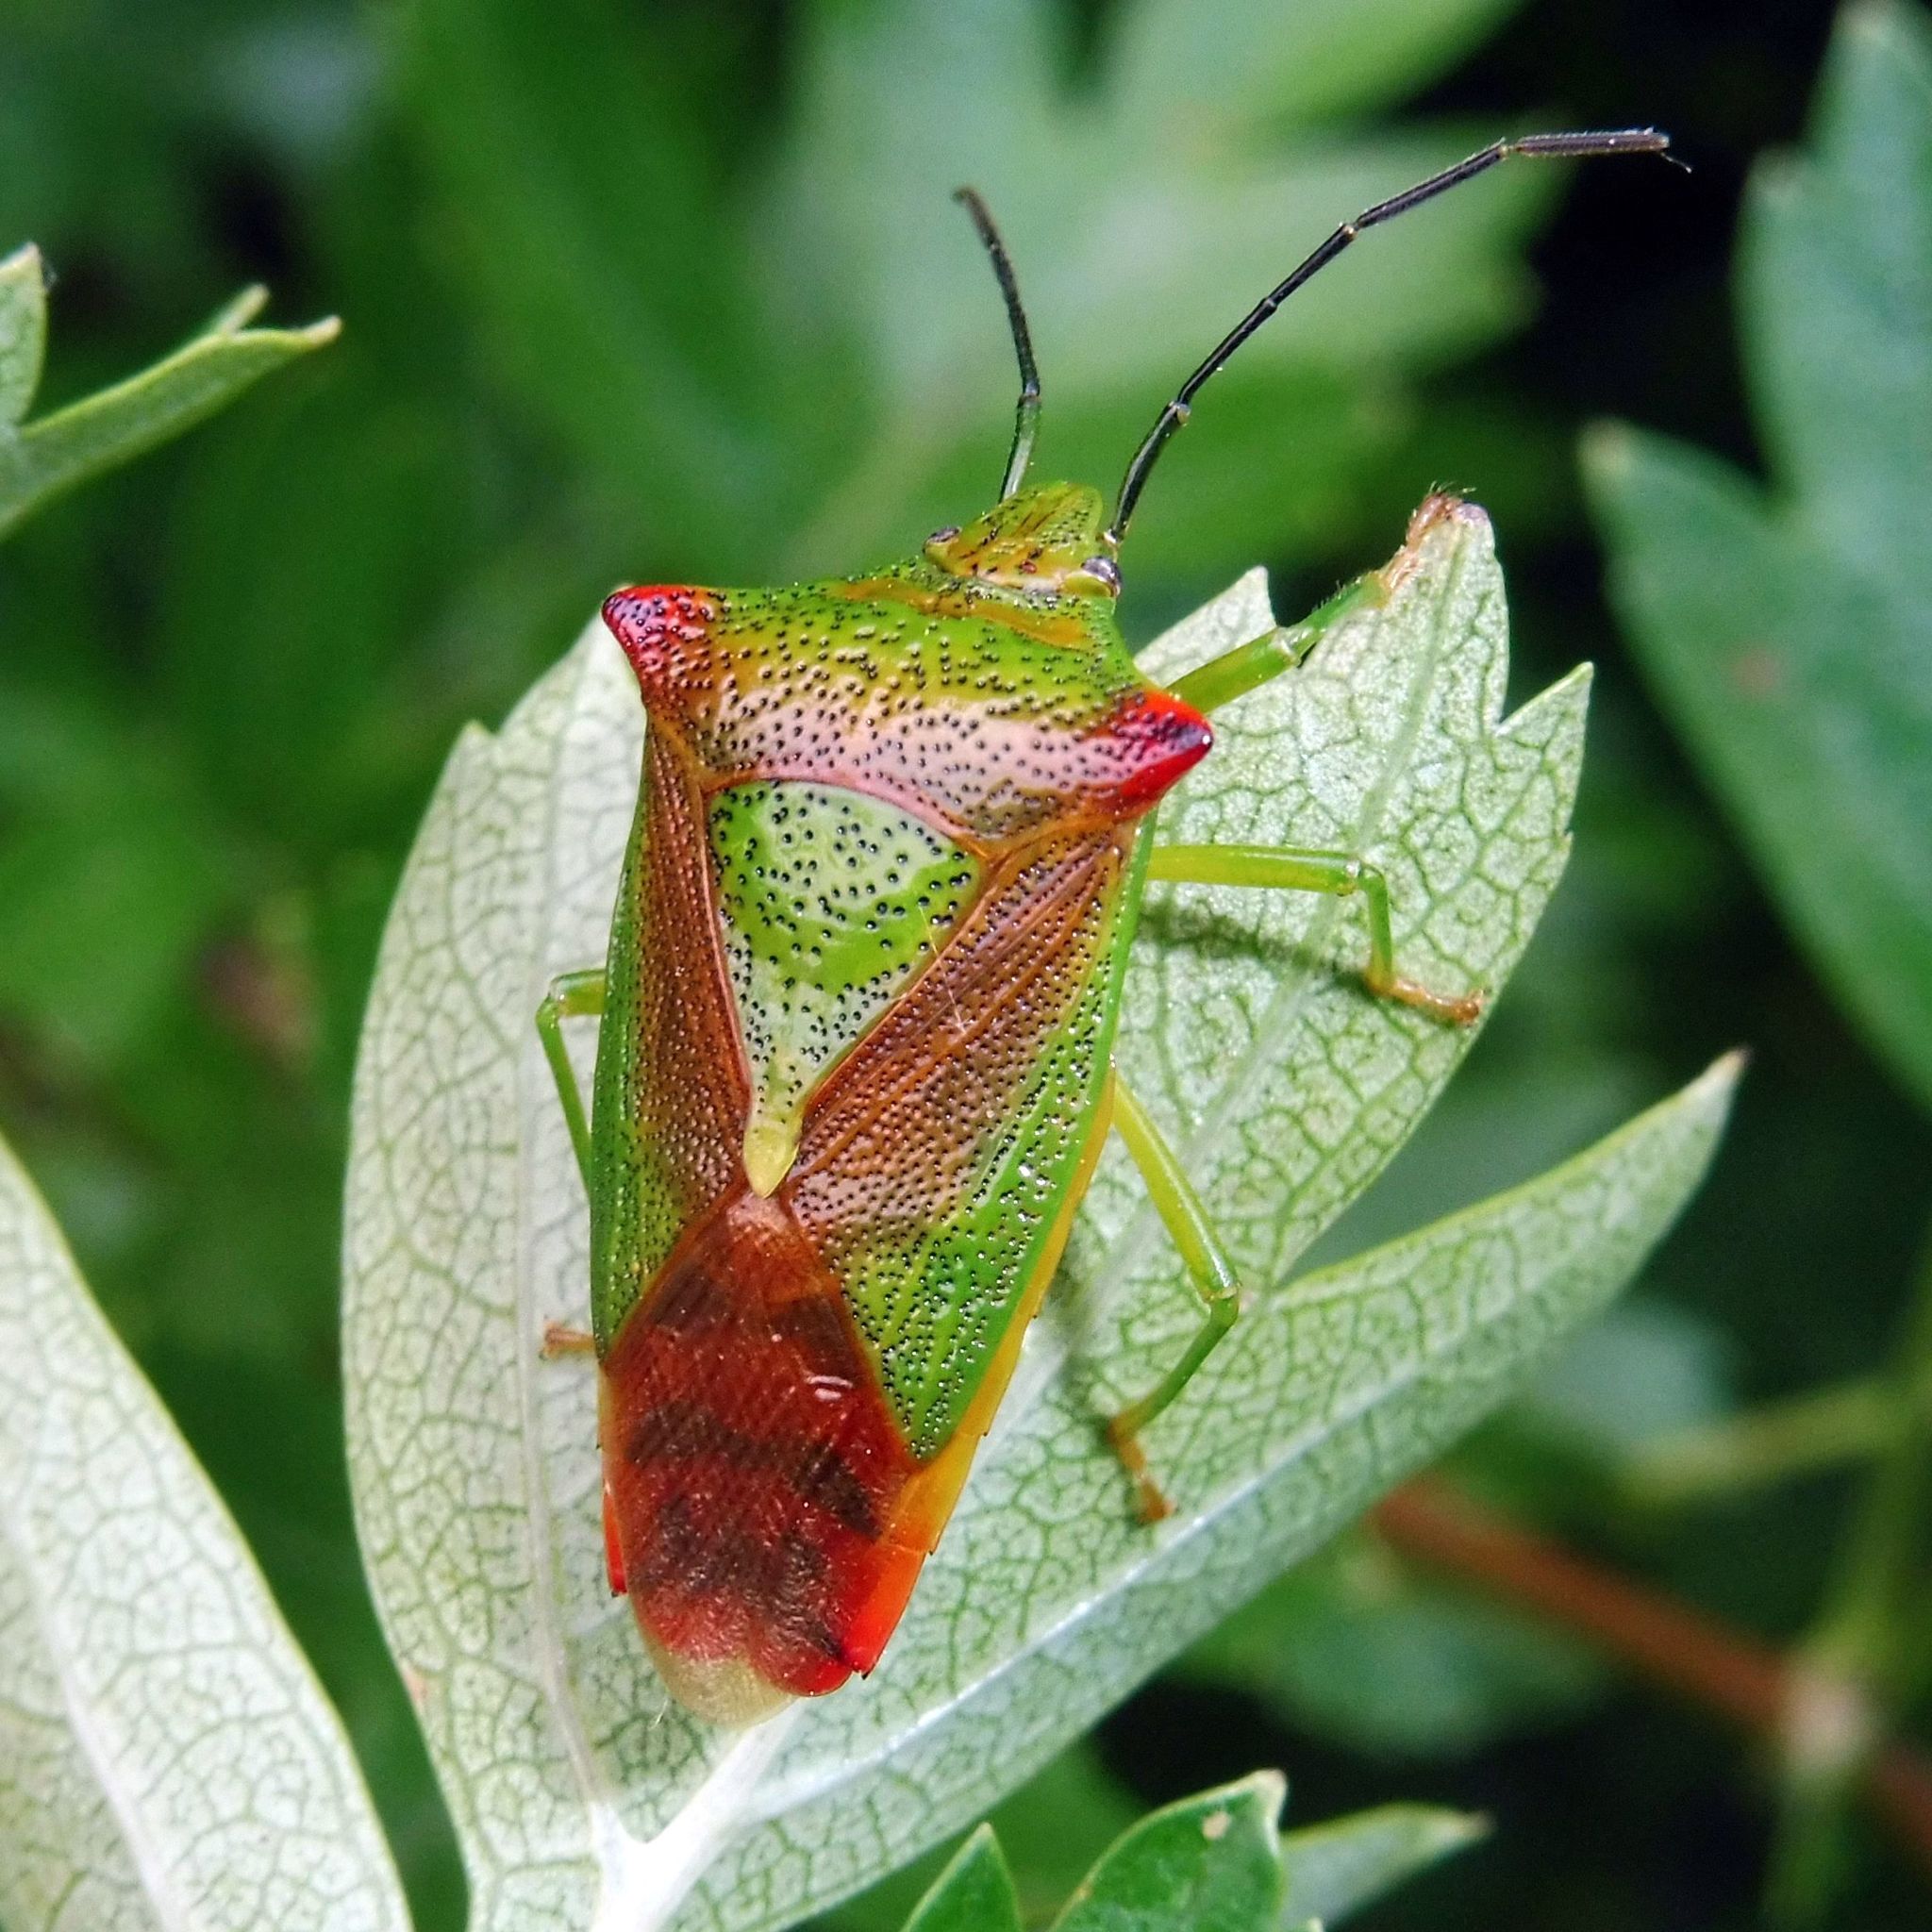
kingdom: Animalia
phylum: Arthropoda
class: Insecta
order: Hemiptera
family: Acanthosomatidae
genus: Acanthosoma
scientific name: Acanthosoma haemorrhoidale
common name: Hawthorn shieldbug
